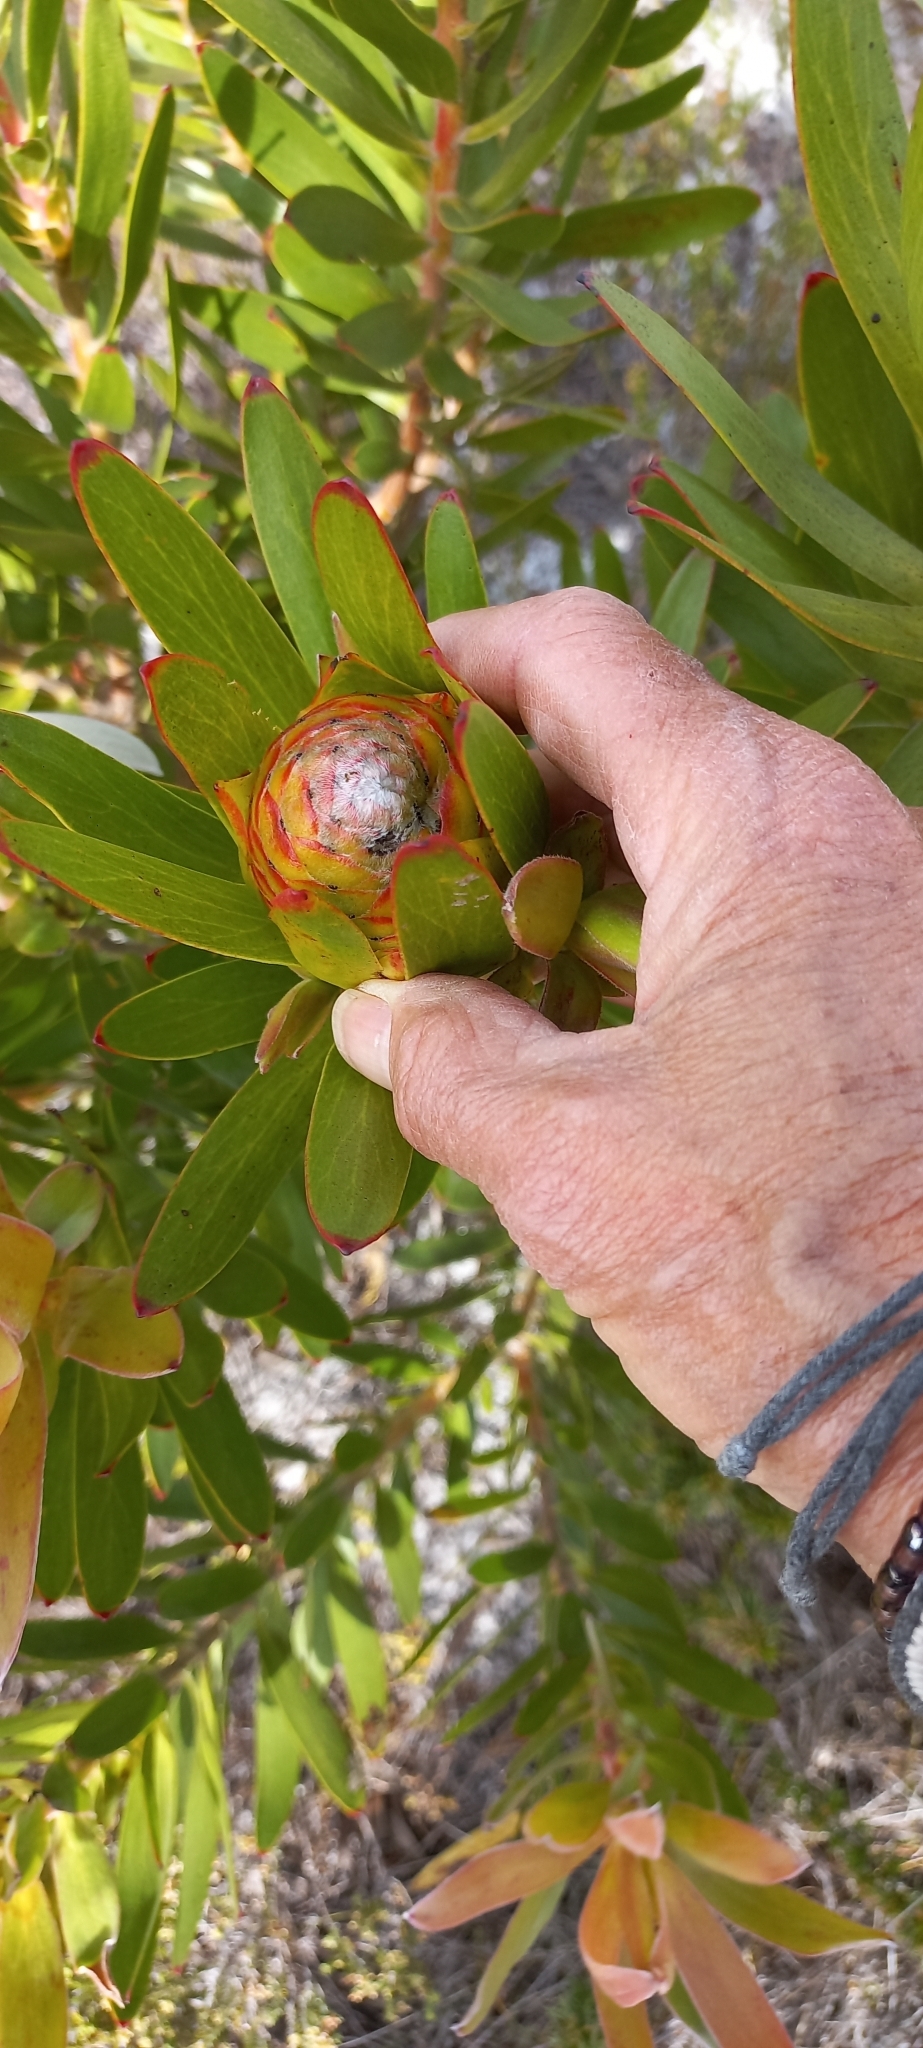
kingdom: Plantae
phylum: Tracheophyta
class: Magnoliopsida
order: Proteales
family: Proteaceae
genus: Leucadendron
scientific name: Leucadendron gandogeri
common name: Broad-leaf conebush
